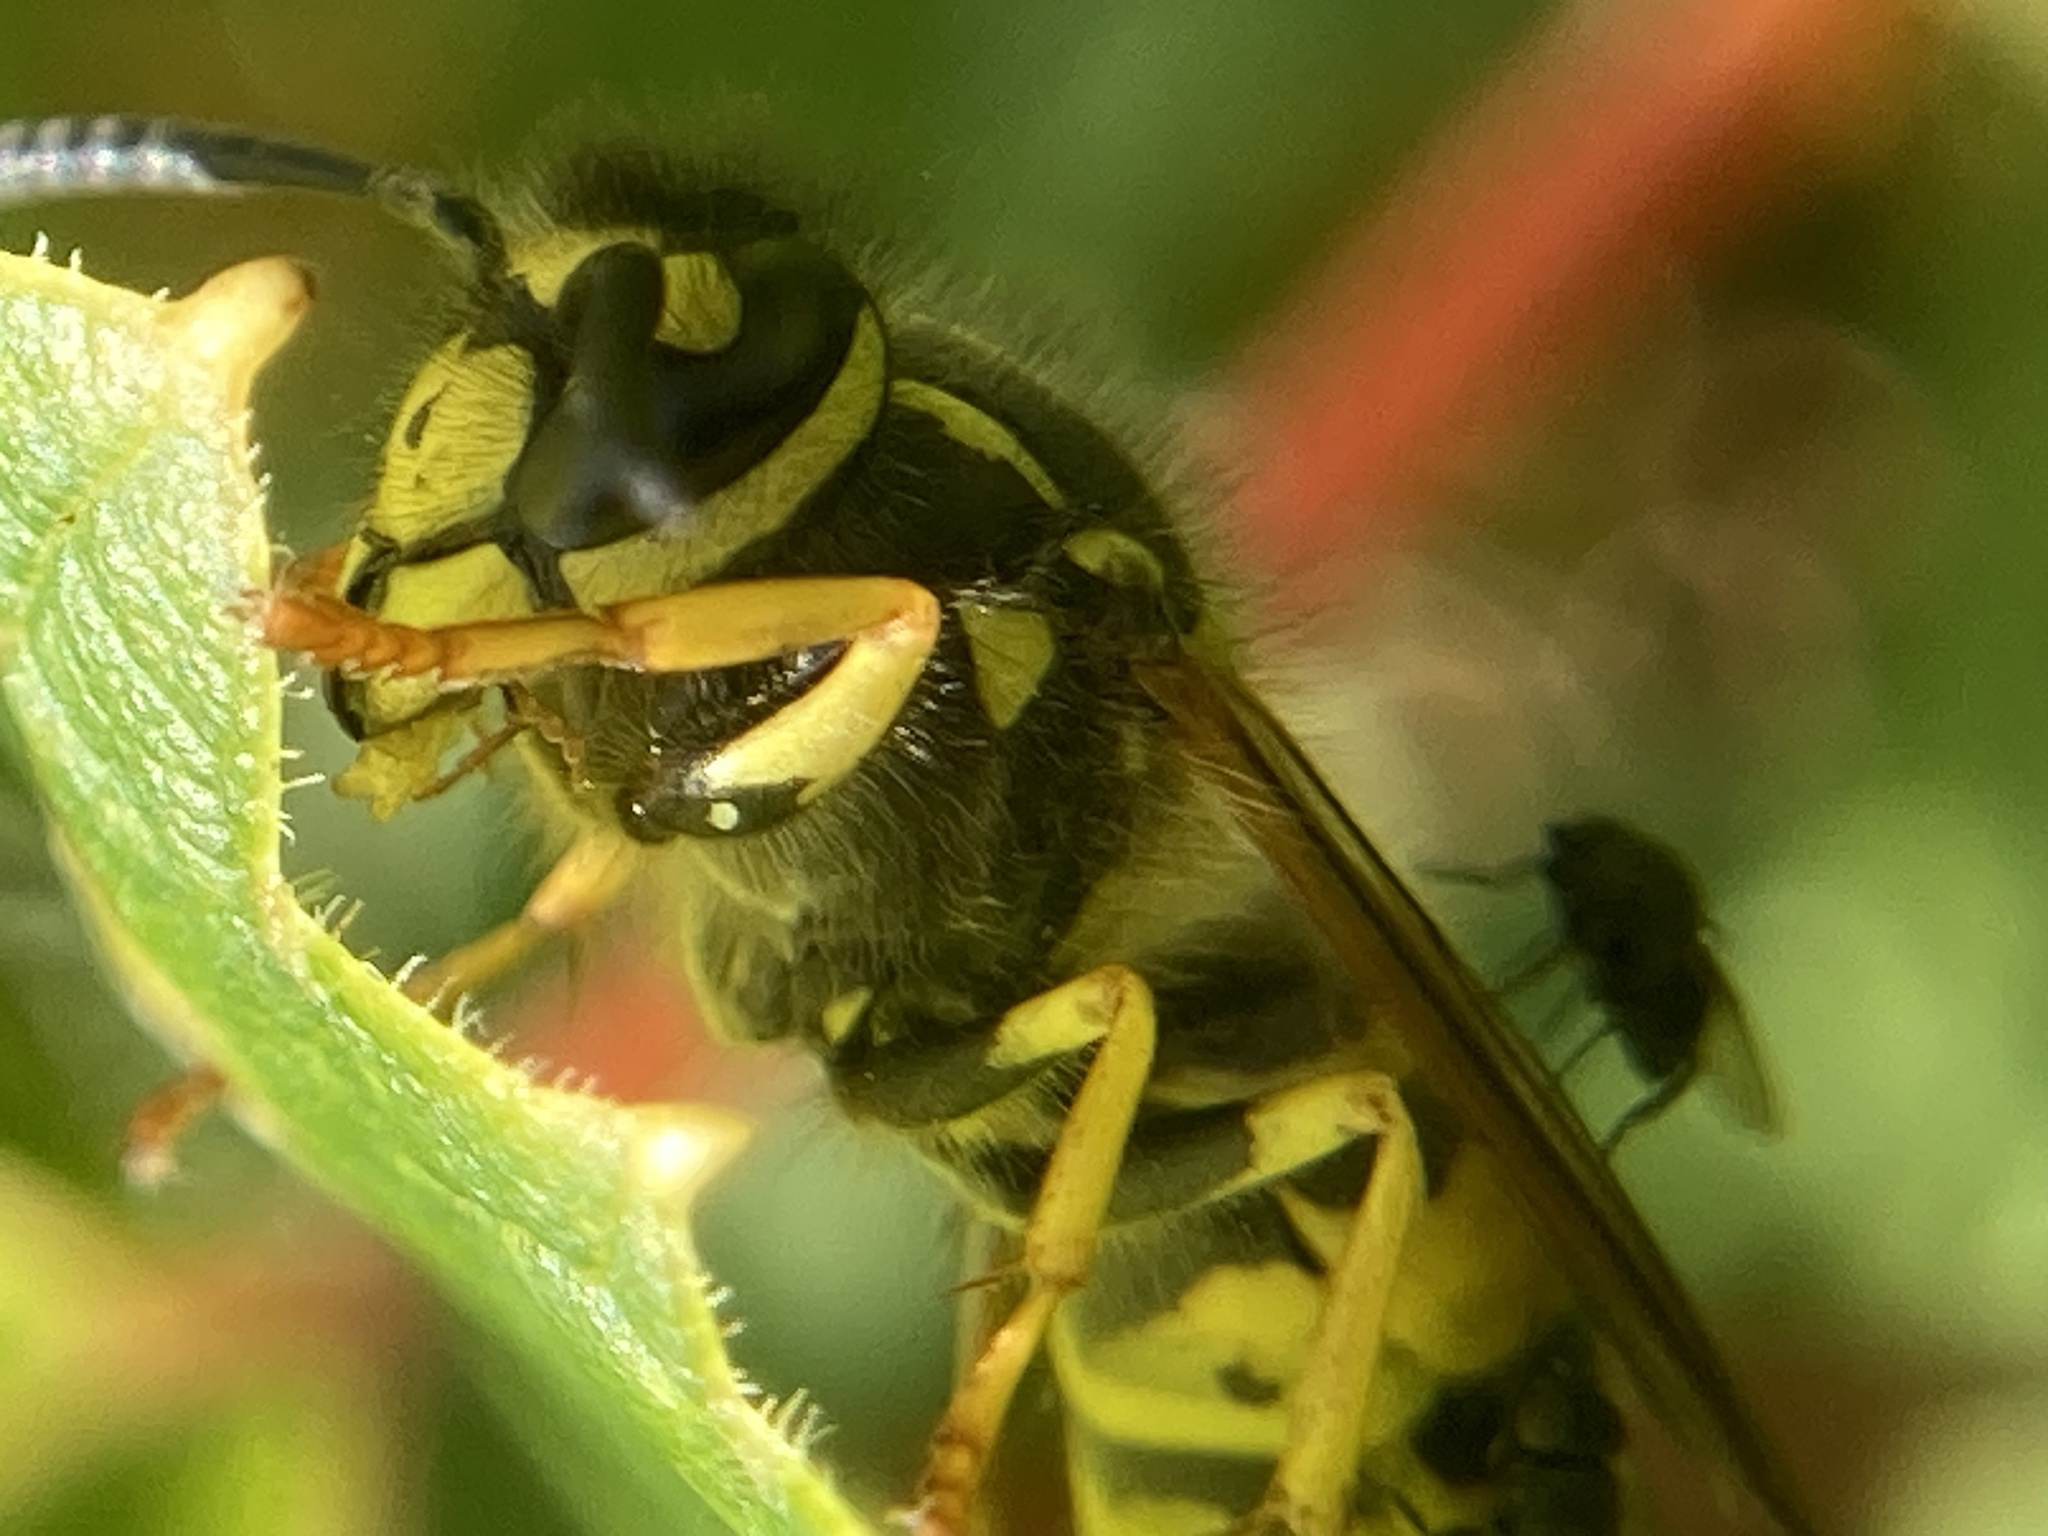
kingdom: Animalia
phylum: Arthropoda
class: Insecta
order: Hymenoptera
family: Vespidae
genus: Vespula
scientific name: Vespula germanica
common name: German wasp
